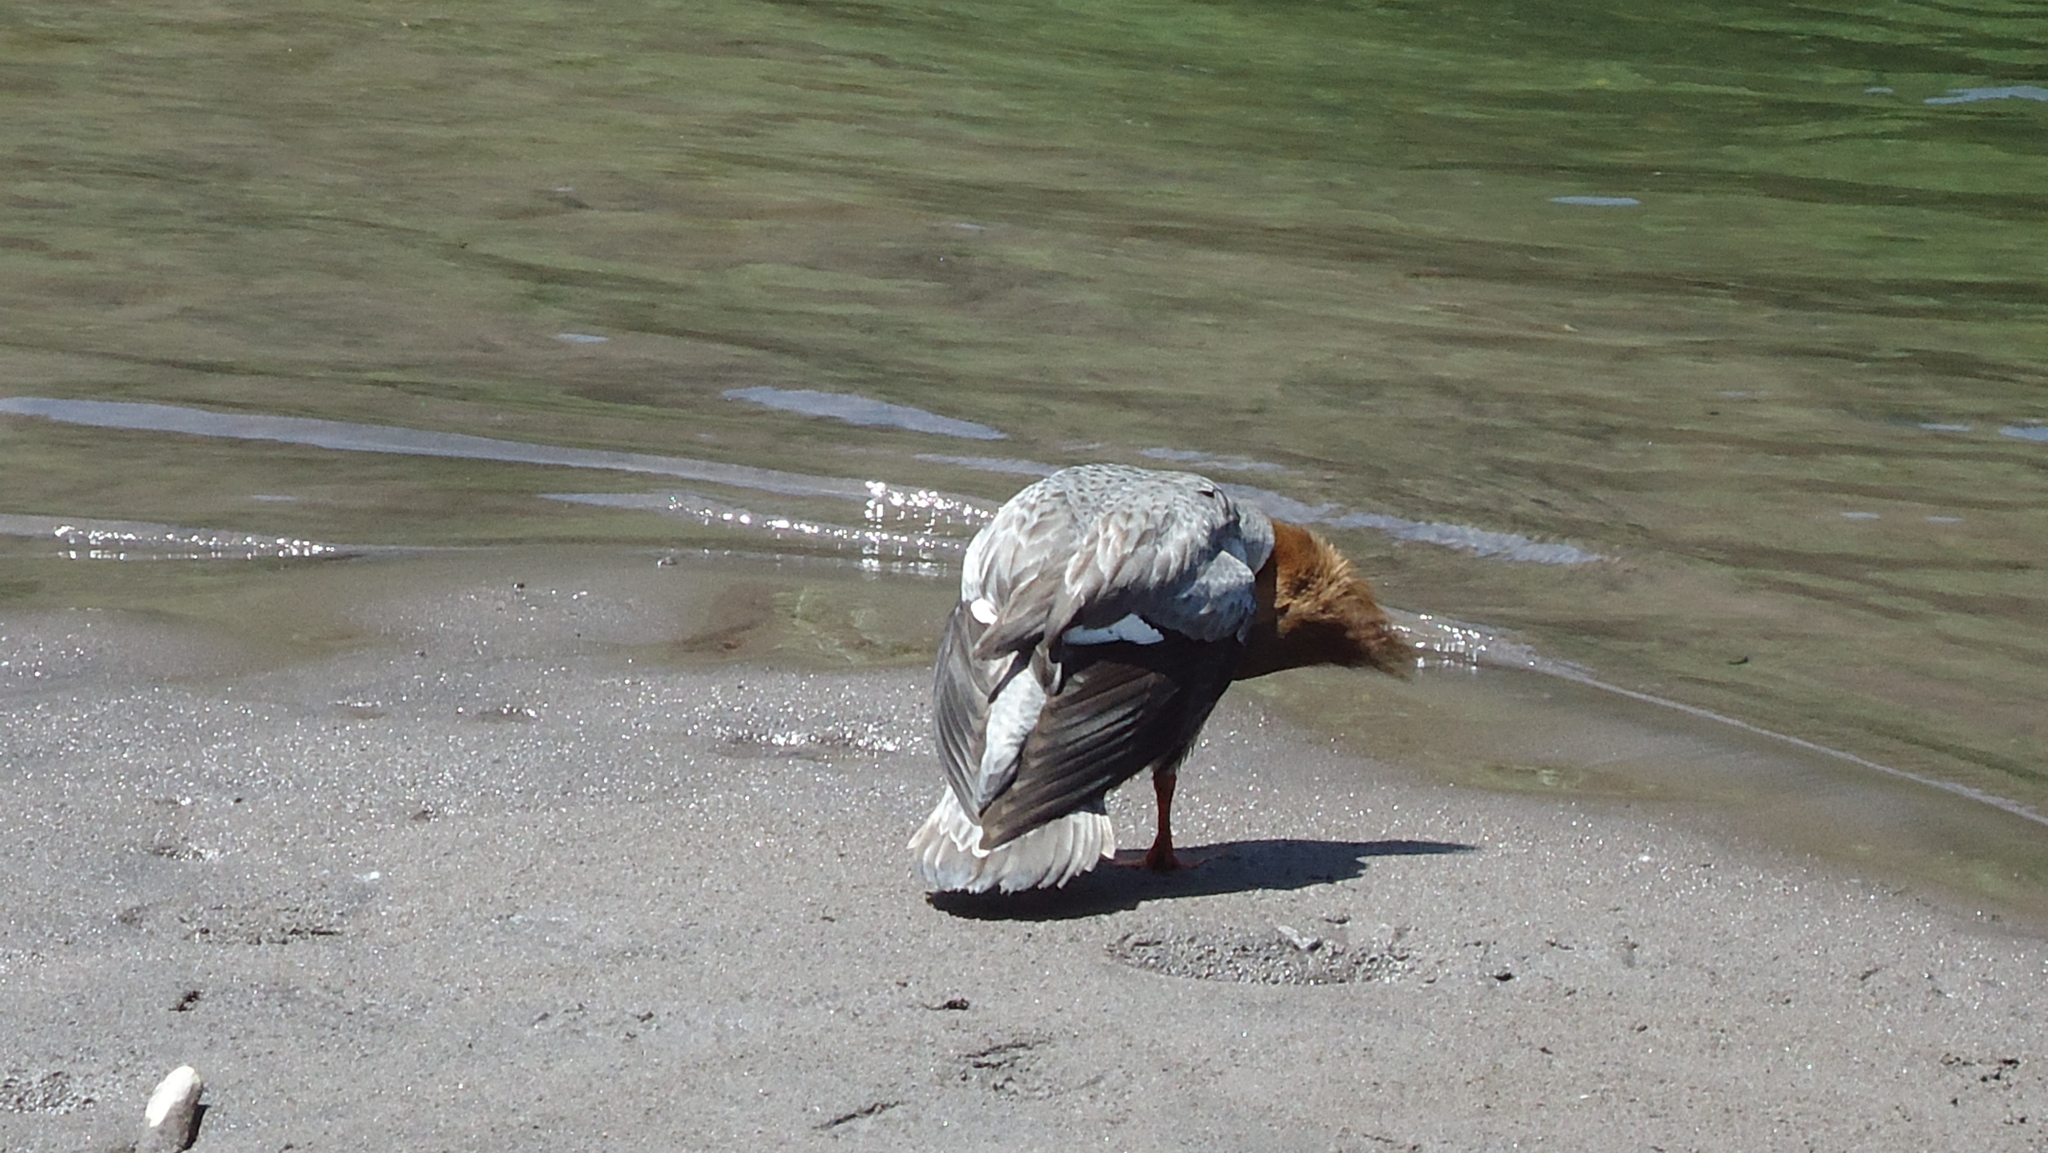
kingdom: Animalia
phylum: Chordata
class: Aves
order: Anseriformes
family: Anatidae
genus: Mergus
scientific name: Mergus merganser
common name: Common merganser
